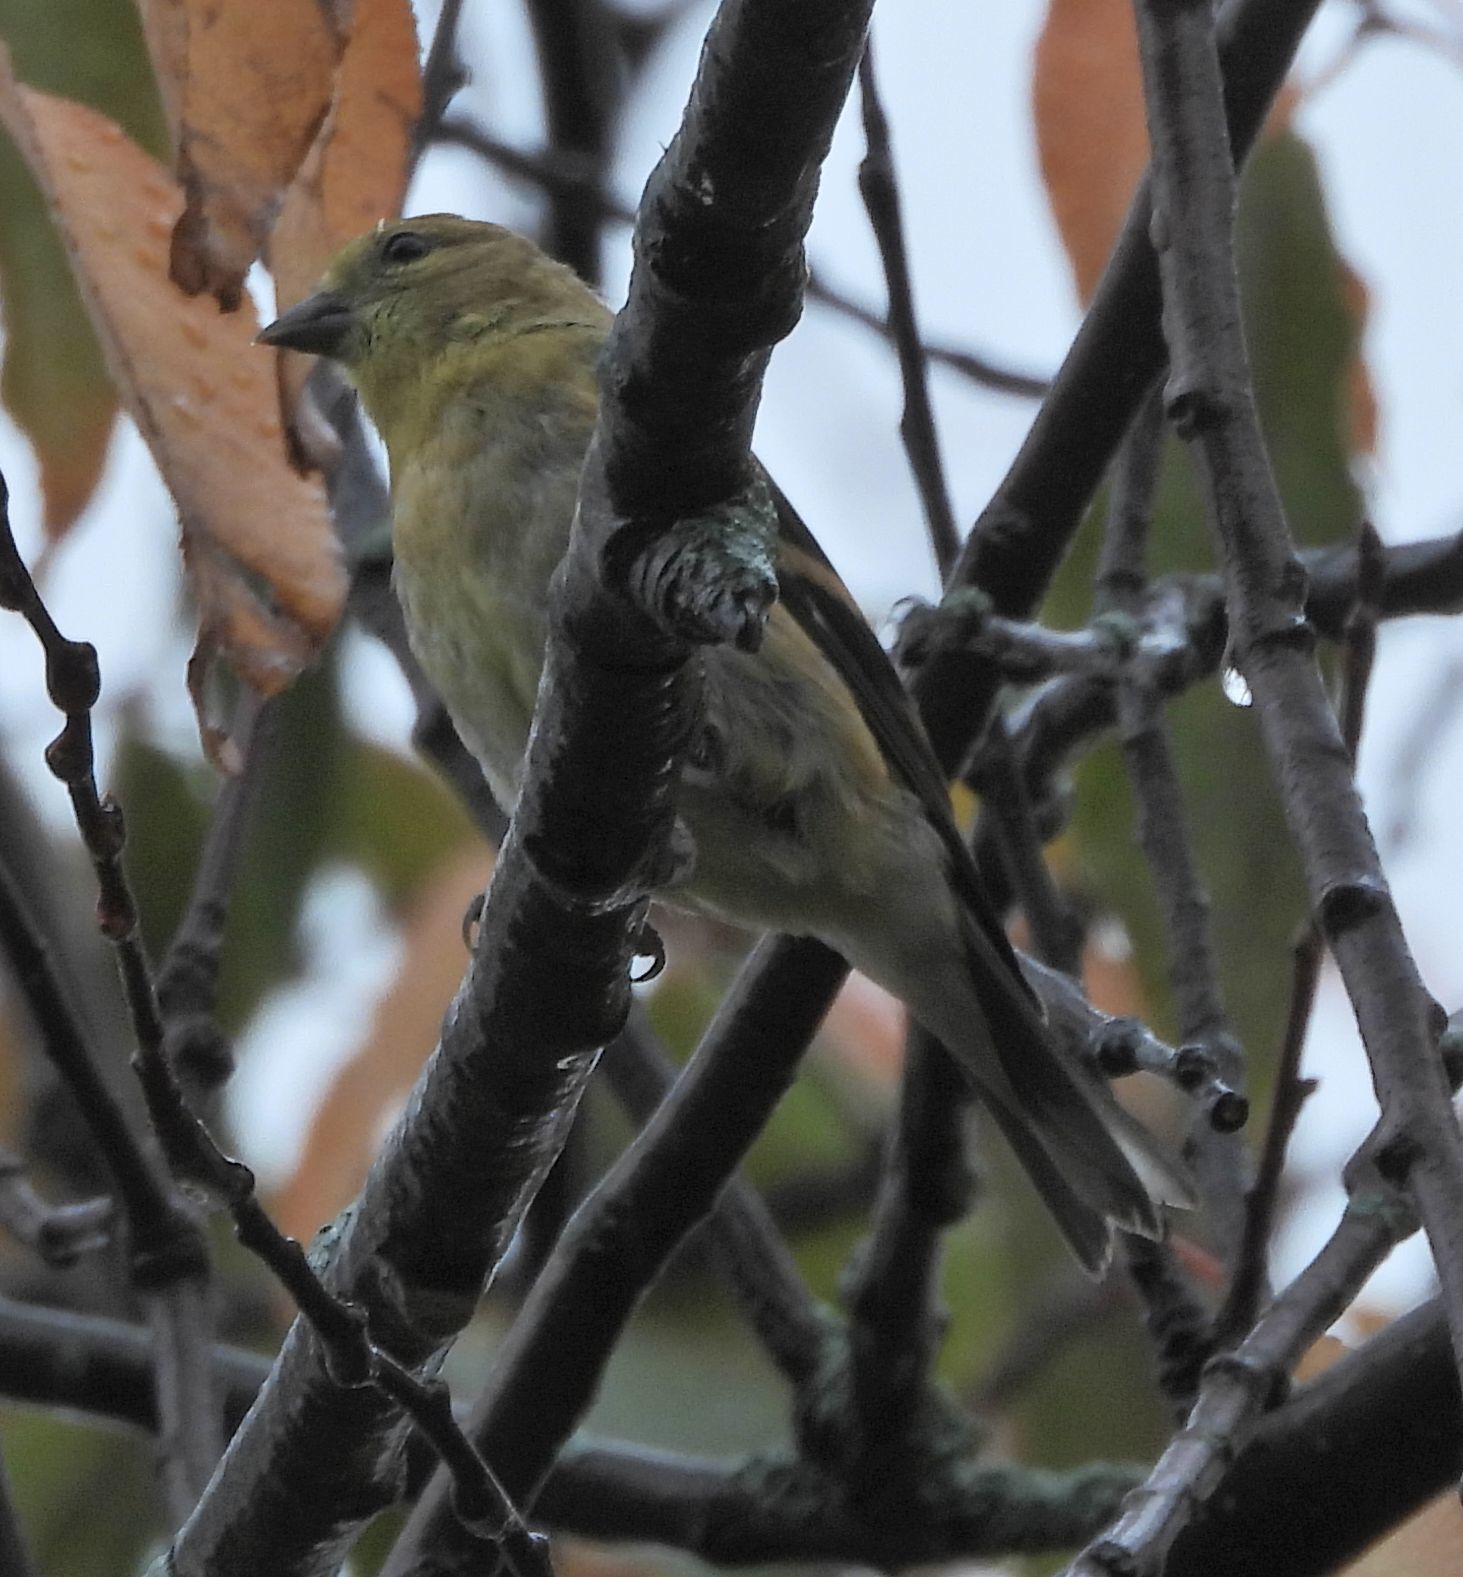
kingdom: Animalia
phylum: Chordata
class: Aves
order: Passeriformes
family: Fringillidae
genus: Spinus
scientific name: Spinus tristis
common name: American goldfinch
